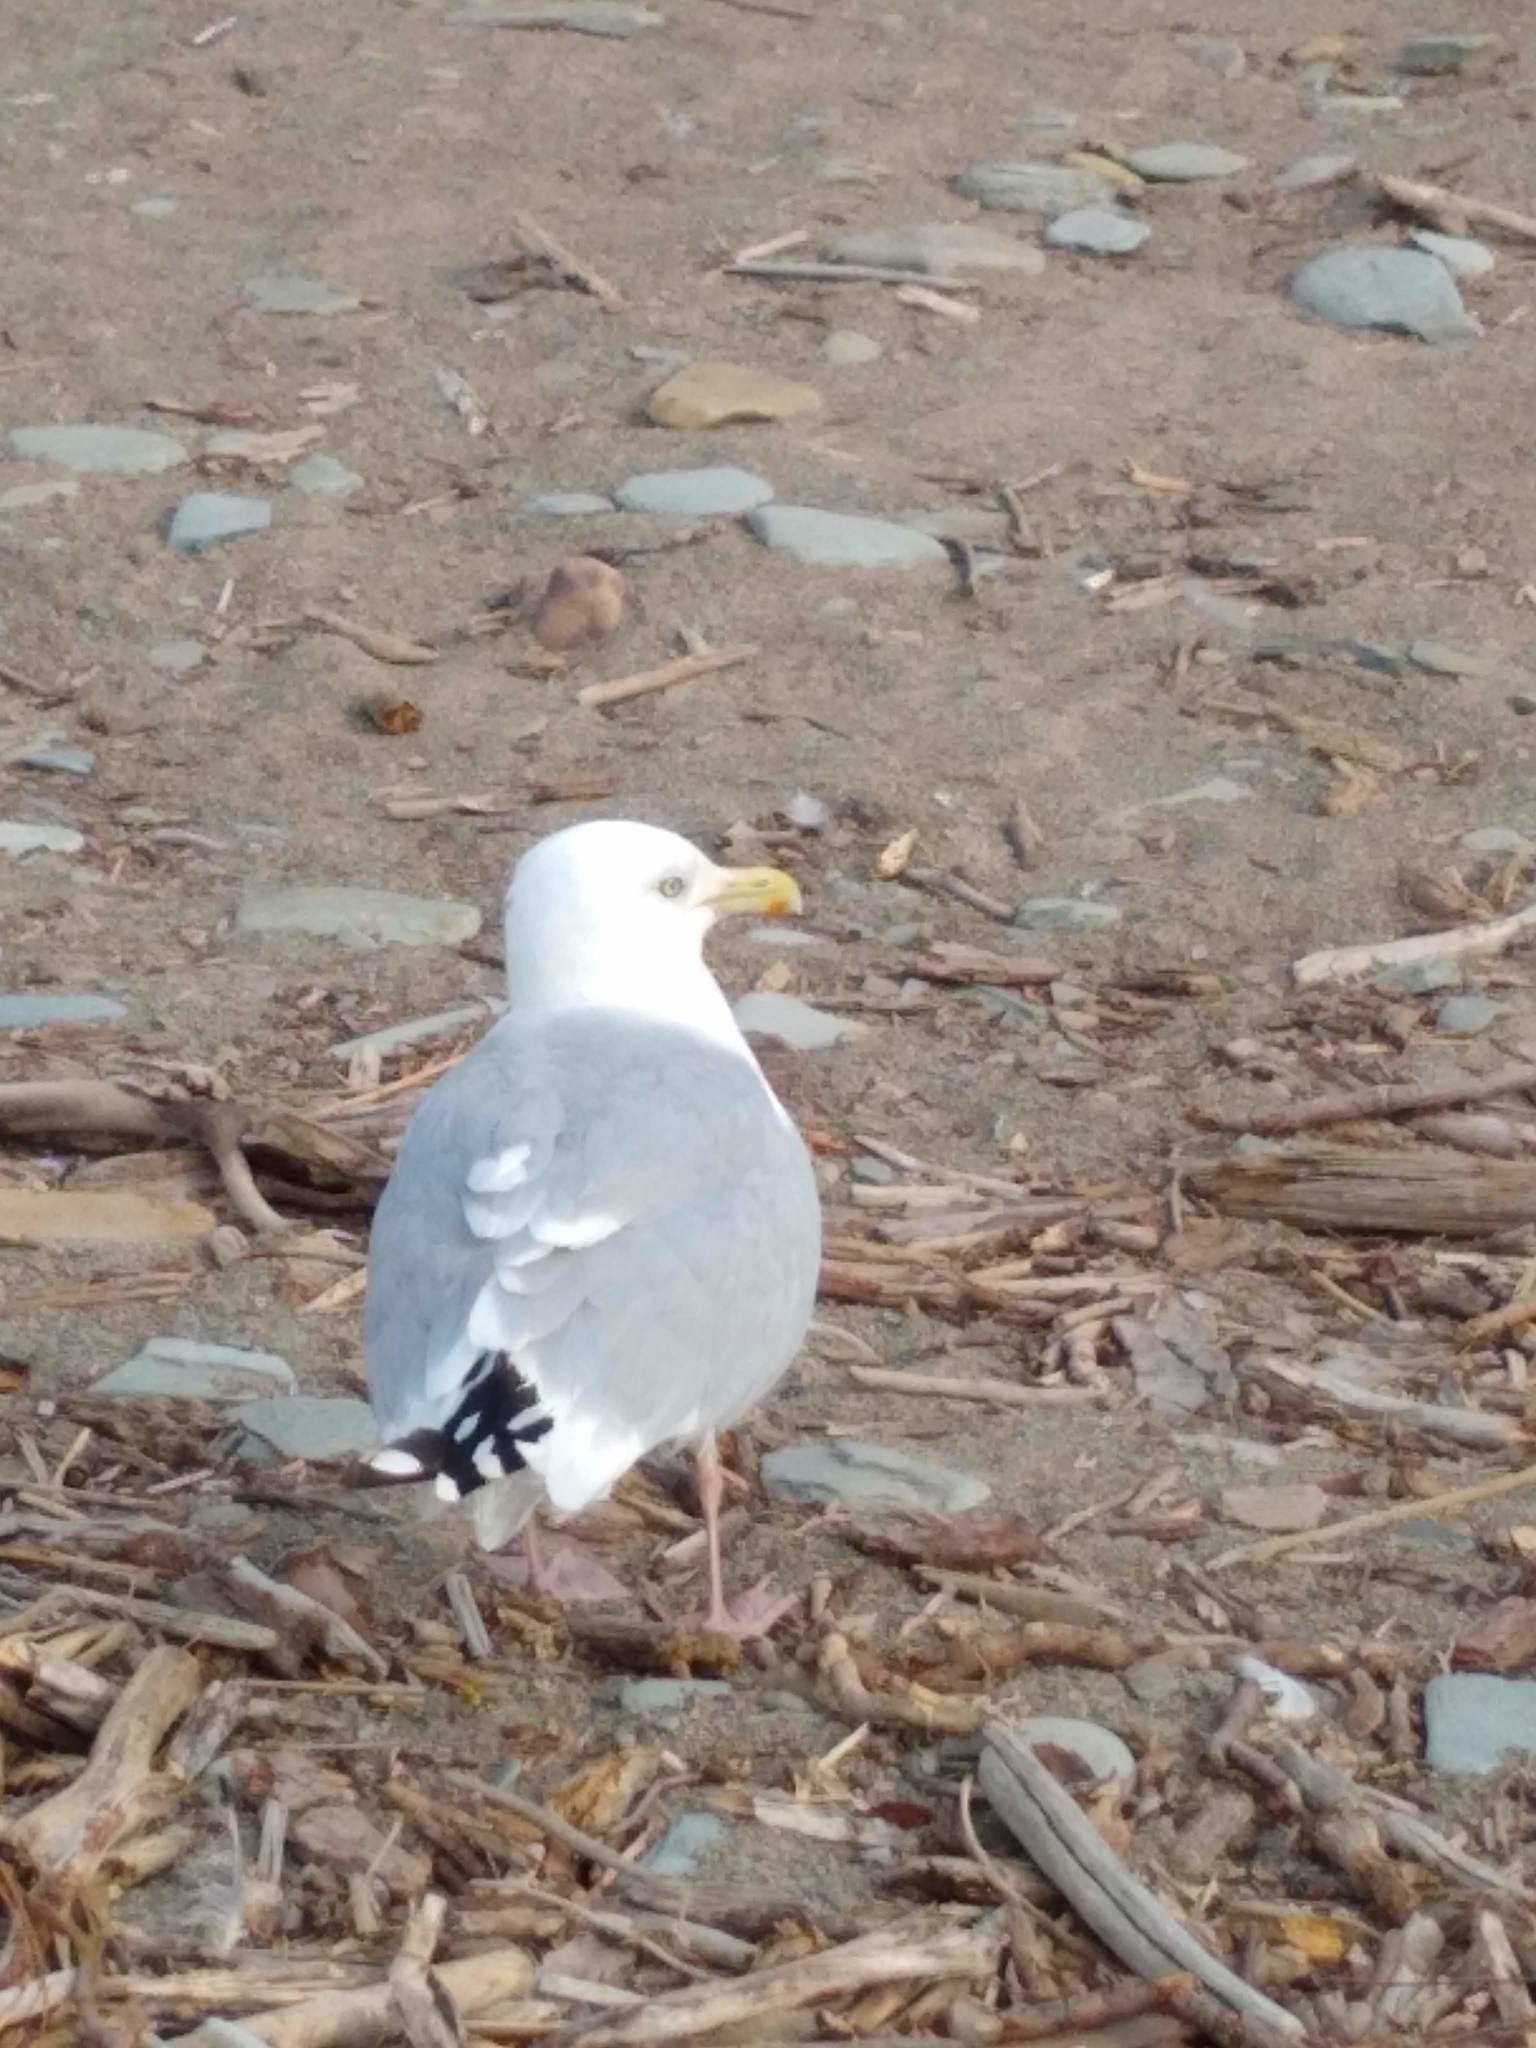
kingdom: Animalia
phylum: Chordata
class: Aves
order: Charadriiformes
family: Laridae
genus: Larus
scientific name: Larus argentatus
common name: Herring gull
